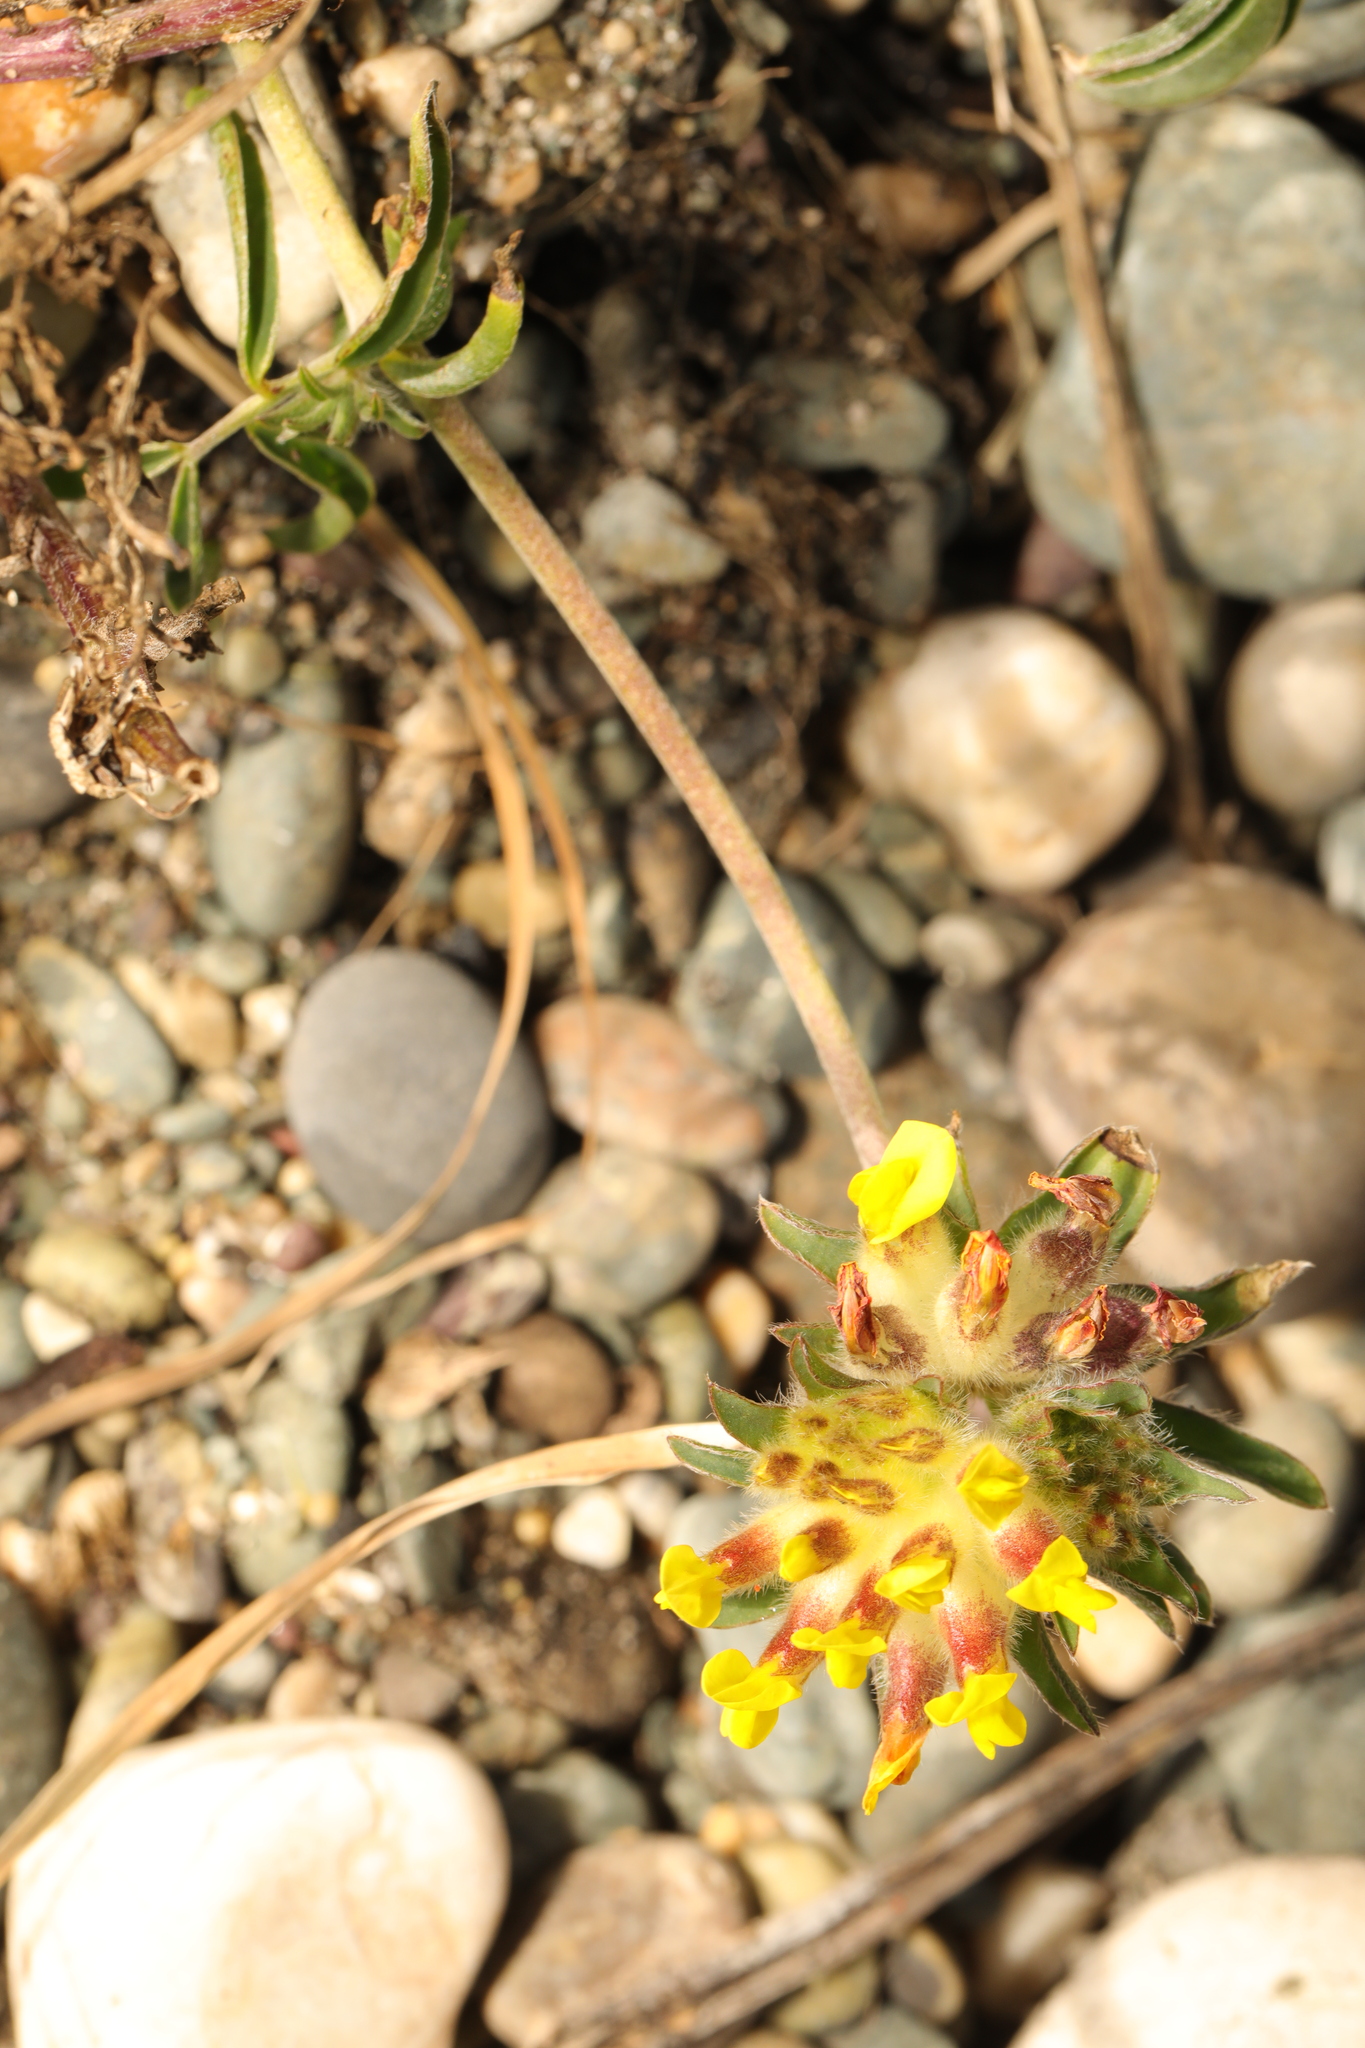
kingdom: Plantae
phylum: Tracheophyta
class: Magnoliopsida
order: Fabales
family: Fabaceae
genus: Anthyllis
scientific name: Anthyllis vulneraria
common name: Kidney vetch
